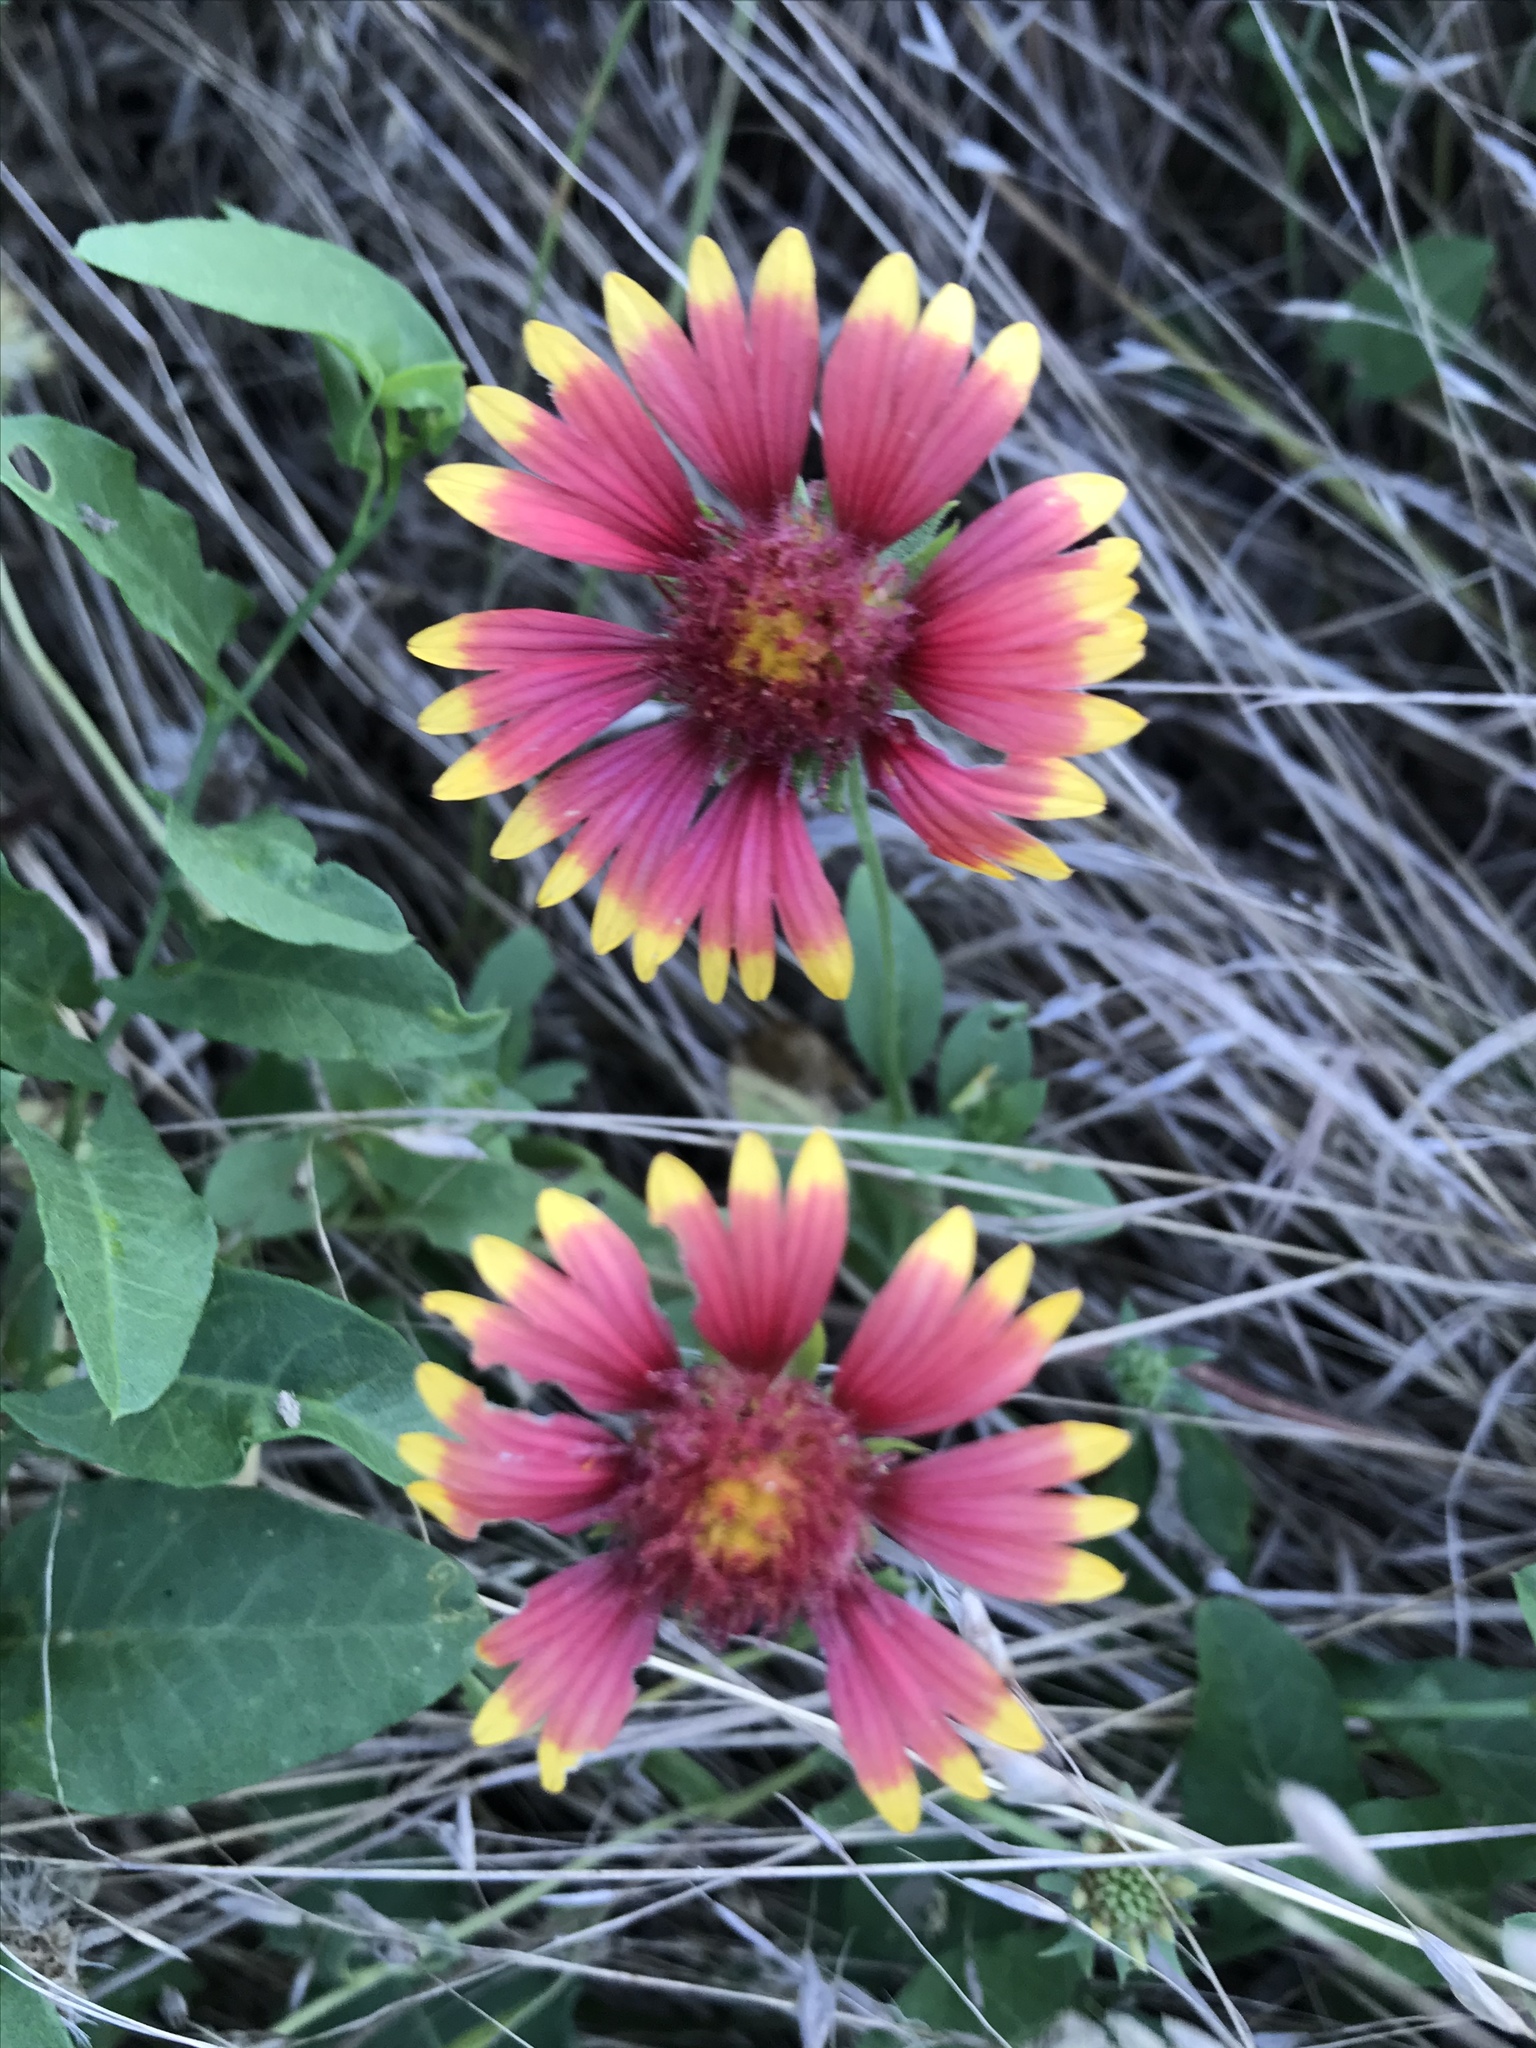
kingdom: Plantae
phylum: Tracheophyta
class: Magnoliopsida
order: Asterales
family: Asteraceae
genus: Gaillardia
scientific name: Gaillardia pulchella
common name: Firewheel
